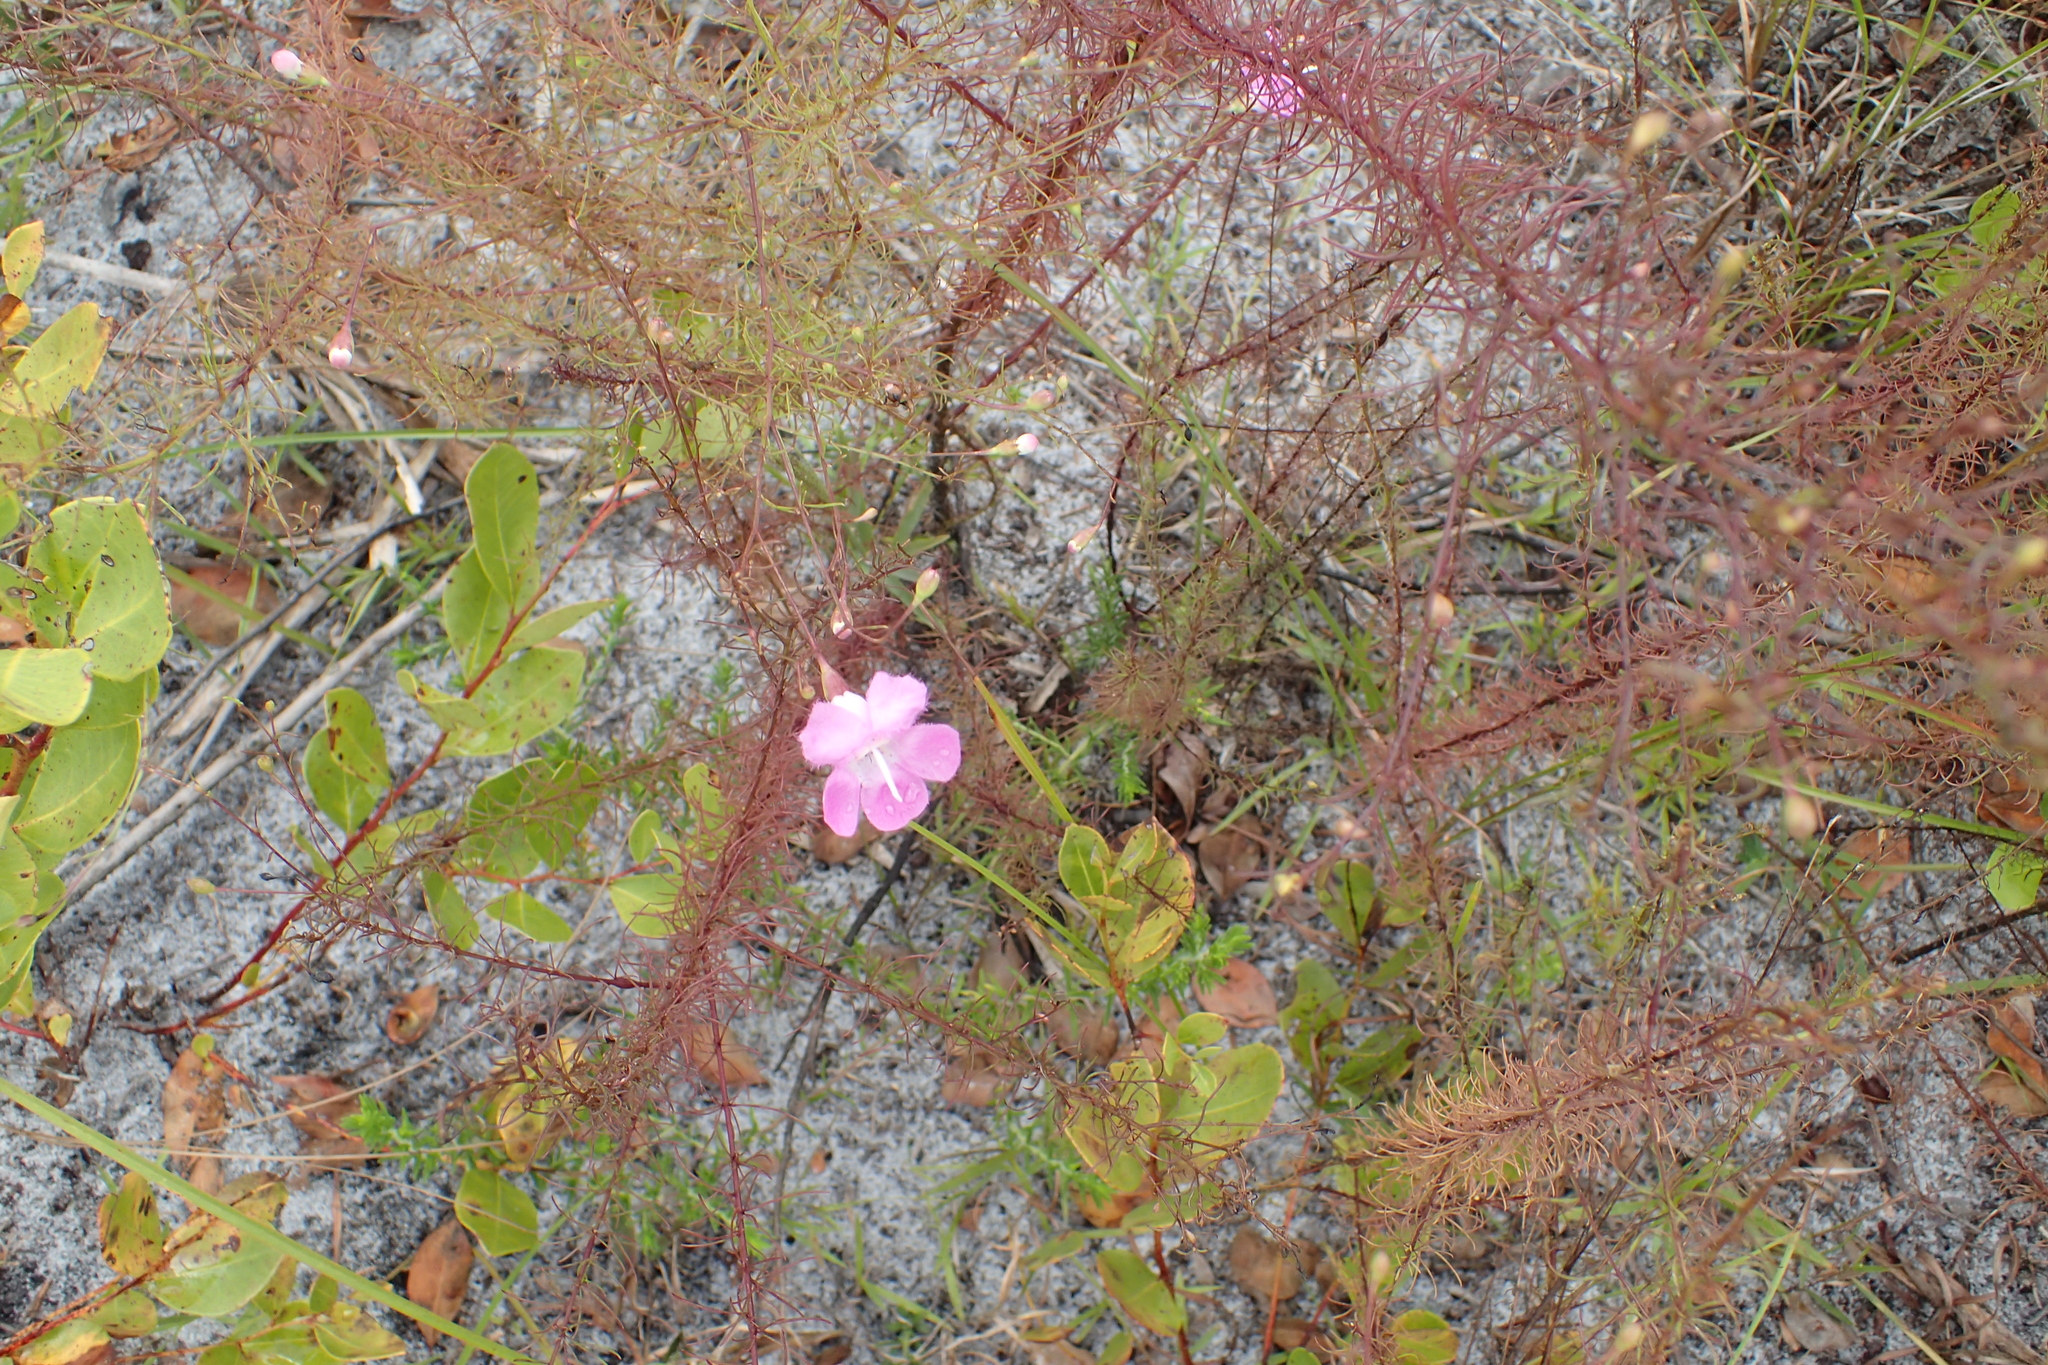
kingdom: Plantae
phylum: Tracheophyta
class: Magnoliopsida
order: Lamiales
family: Orobanchaceae
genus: Agalinis
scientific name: Agalinis filifolia
